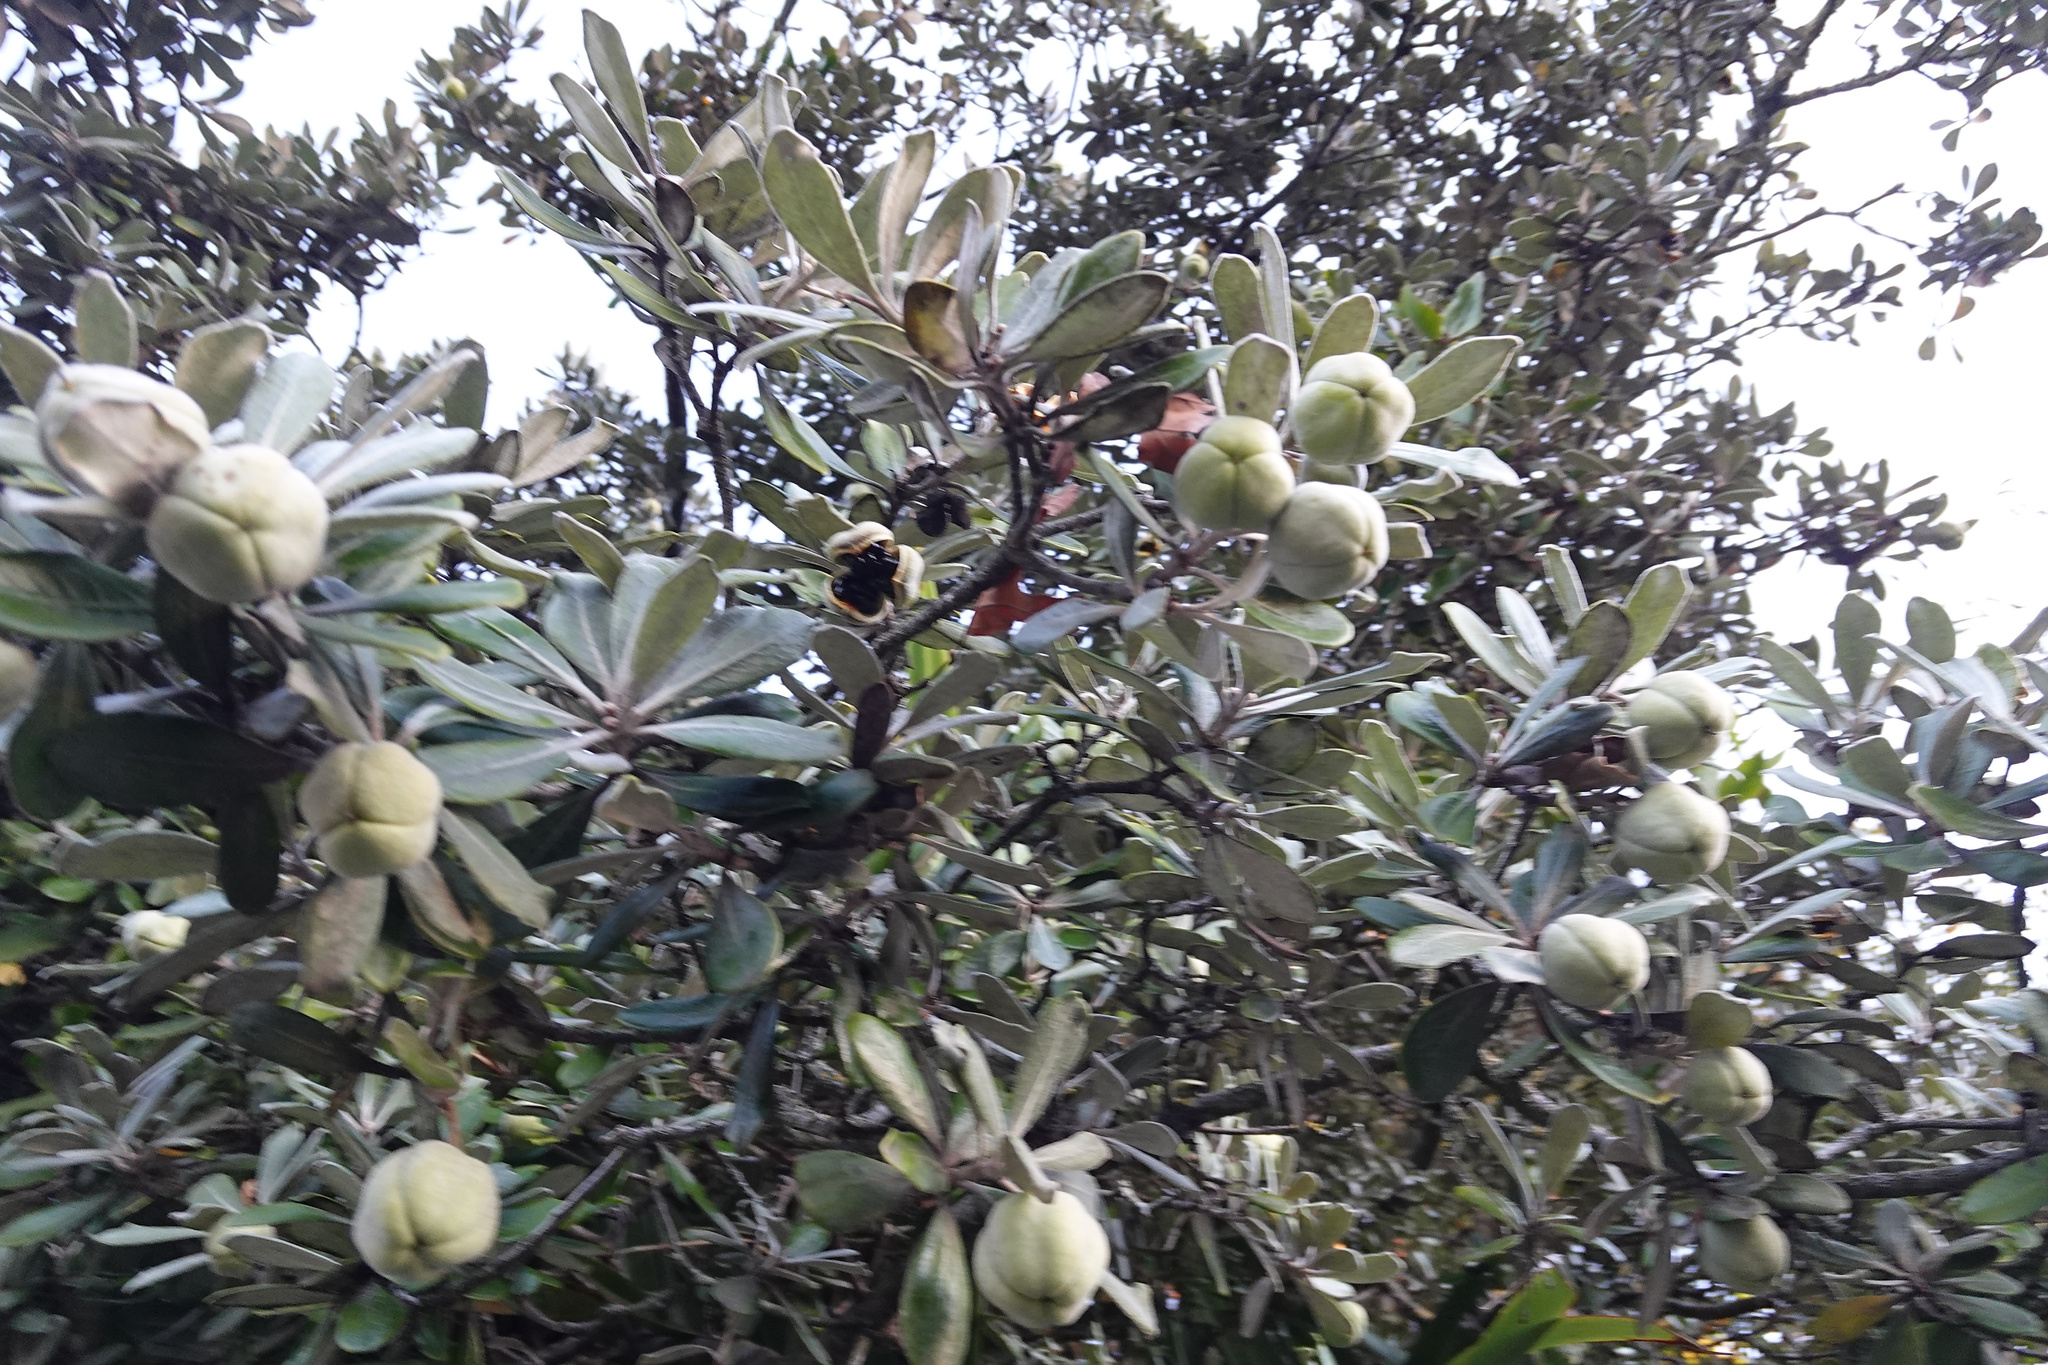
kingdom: Plantae
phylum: Tracheophyta
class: Magnoliopsida
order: Apiales
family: Pittosporaceae
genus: Pittosporum
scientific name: Pittosporum crassifolium
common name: Karo
